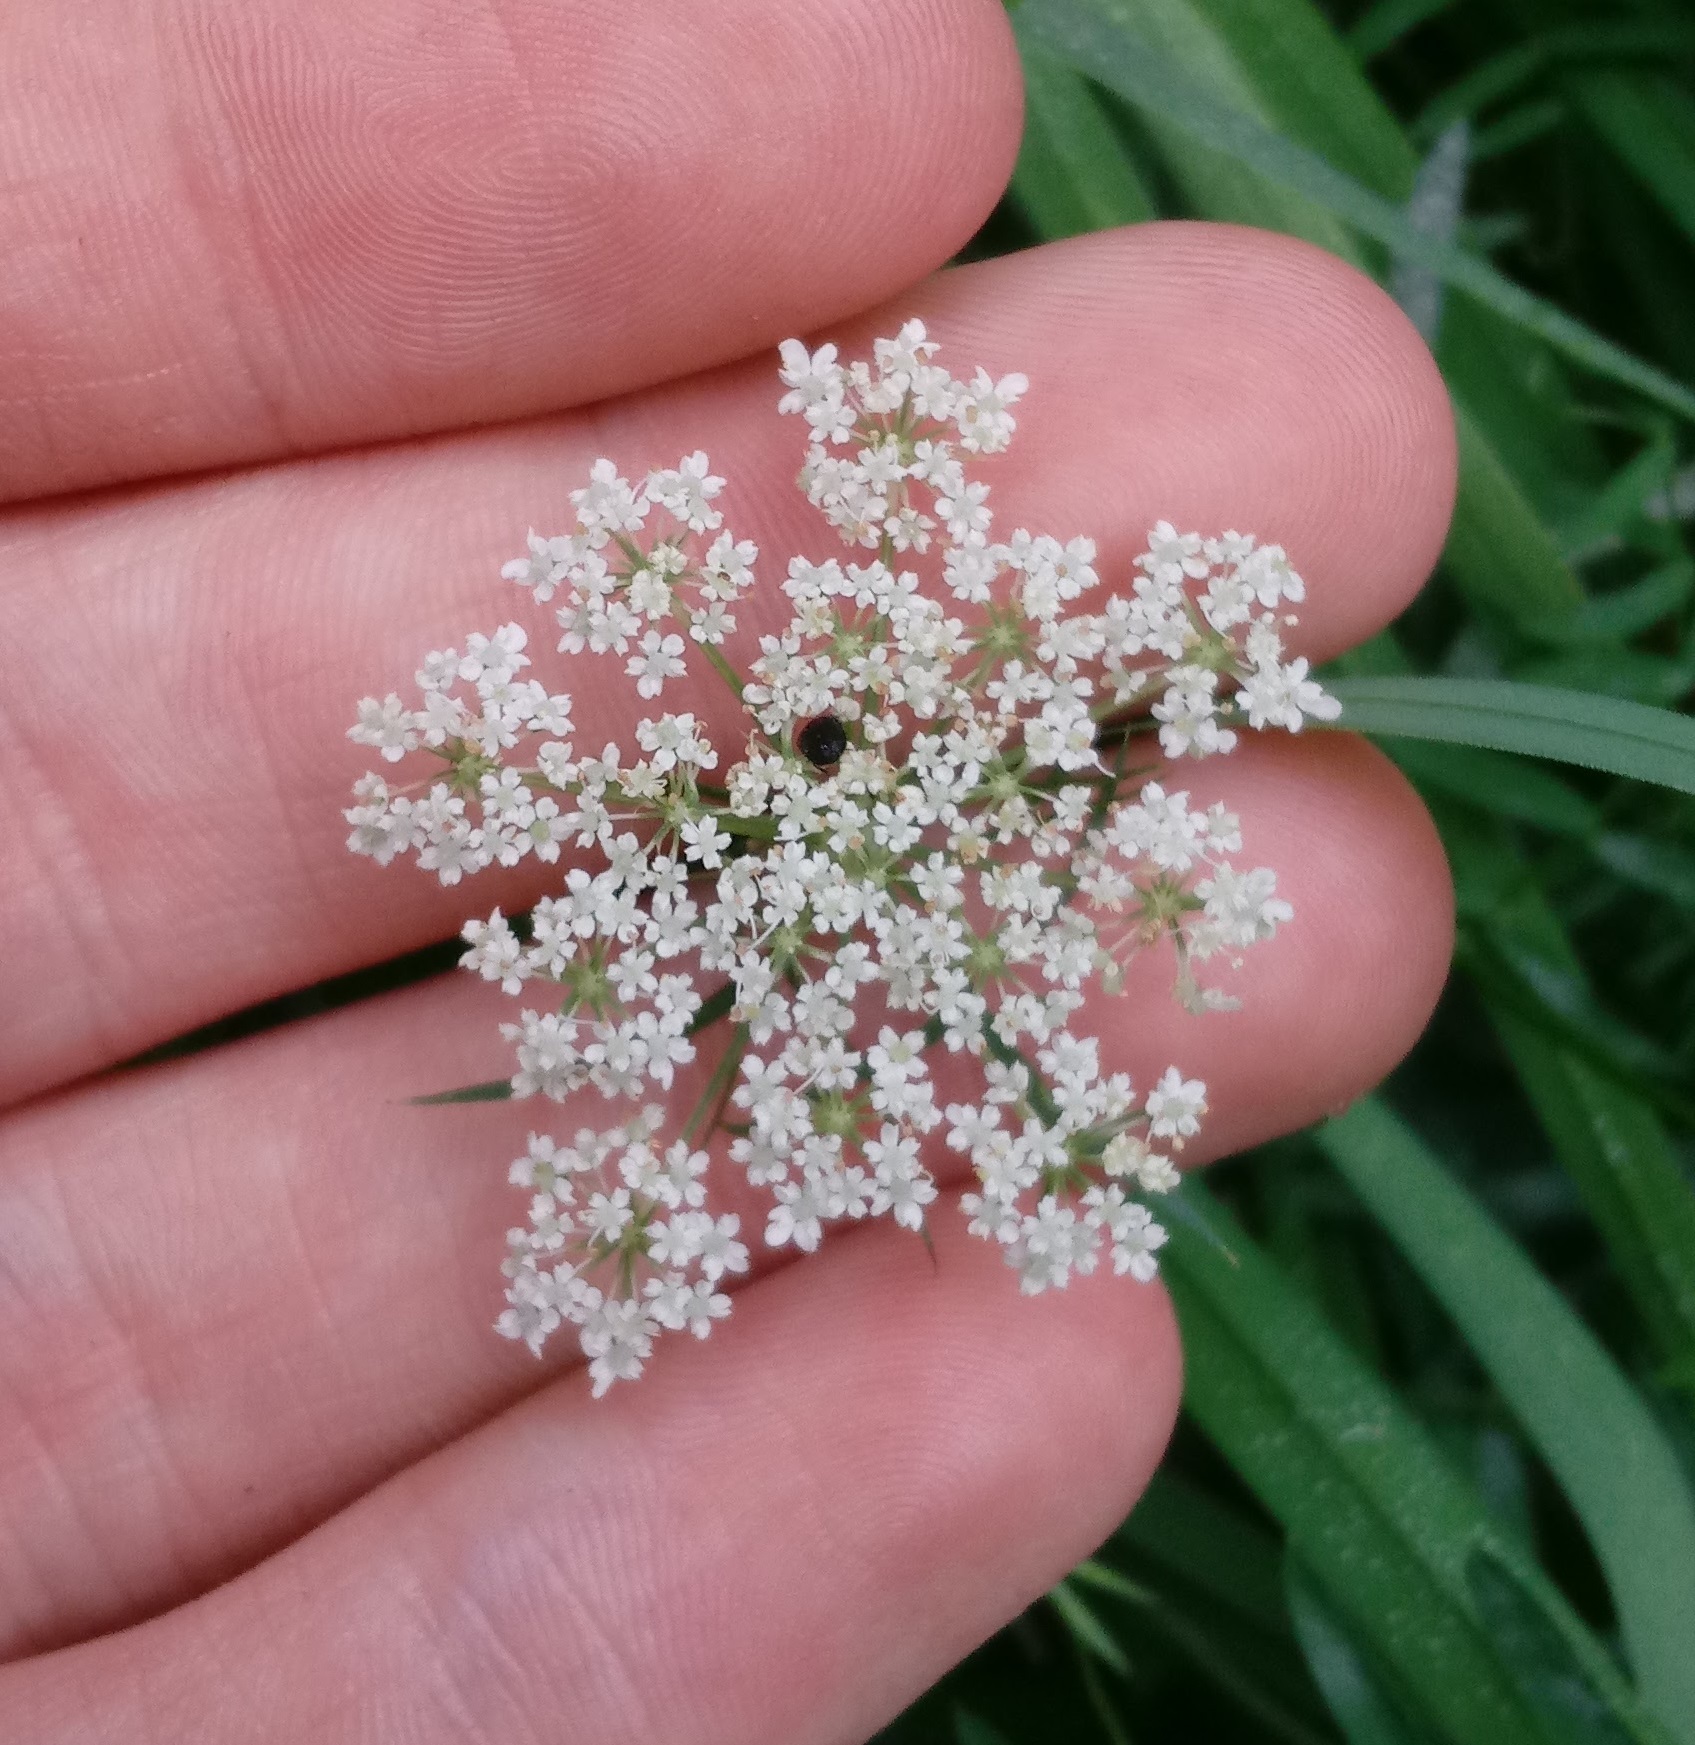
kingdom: Plantae
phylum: Tracheophyta
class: Magnoliopsida
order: Apiales
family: Apiaceae
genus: Daucus
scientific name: Daucus carota
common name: Wild carrot
